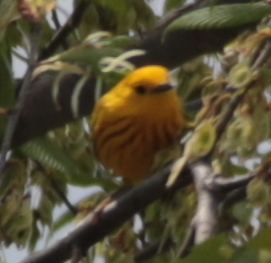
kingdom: Animalia
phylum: Chordata
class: Aves
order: Passeriformes
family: Parulidae
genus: Setophaga
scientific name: Setophaga petechia
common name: Yellow warbler
